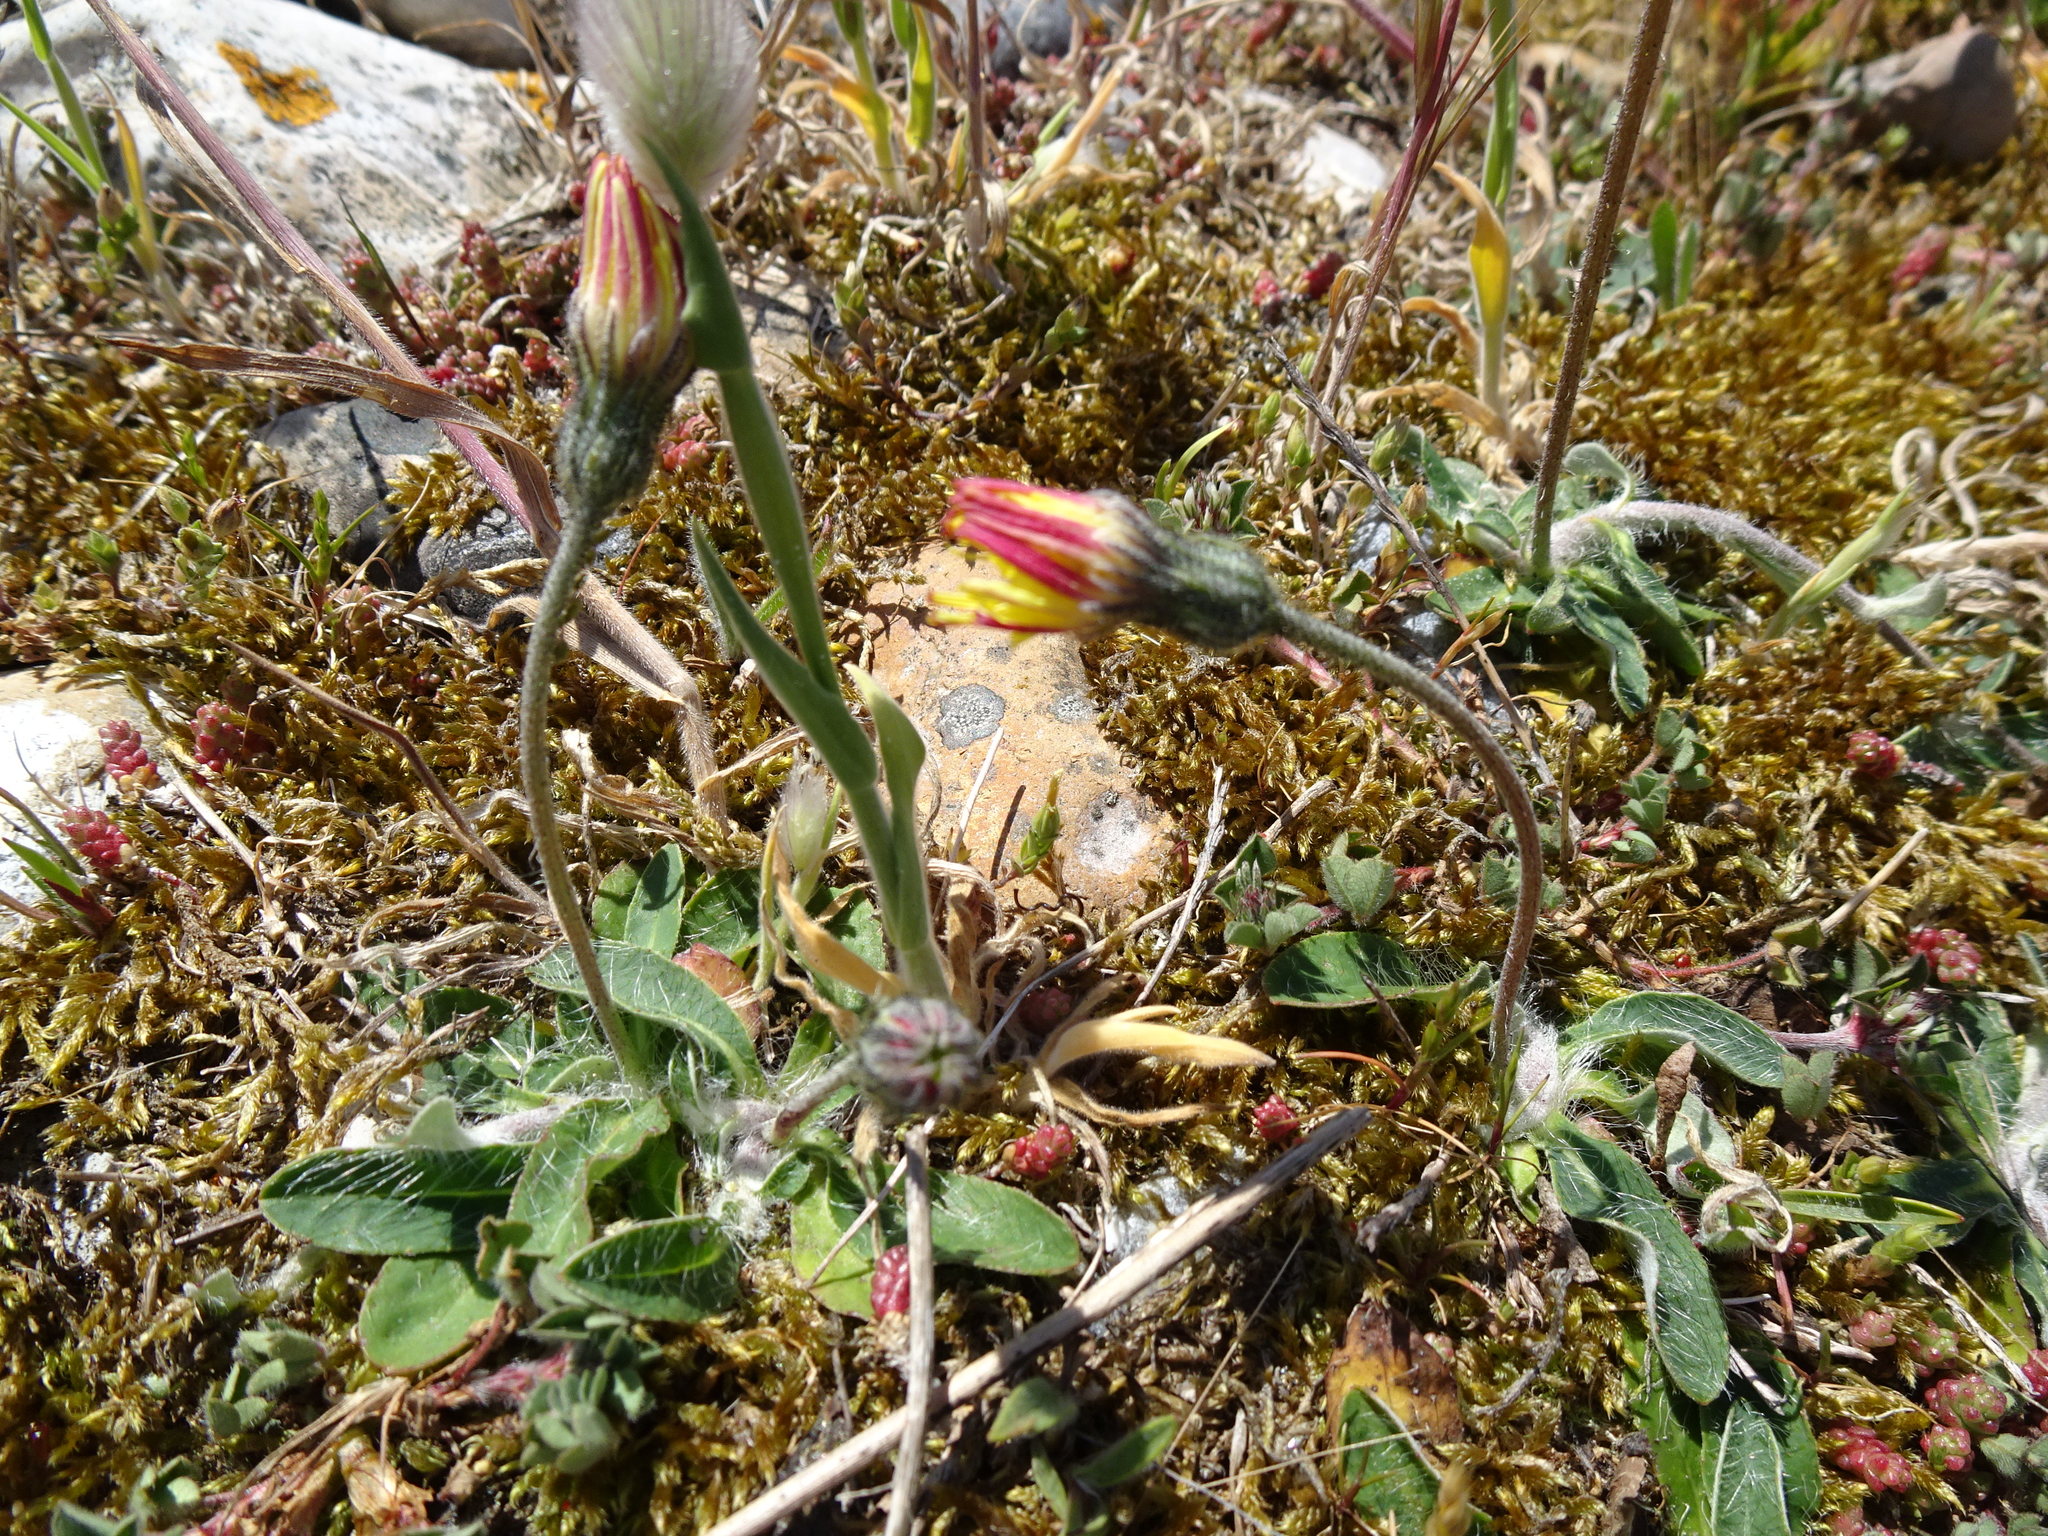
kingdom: Plantae
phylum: Tracheophyta
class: Magnoliopsida
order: Asterales
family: Asteraceae
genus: Pilosella
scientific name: Pilosella officinarum
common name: Mouse-ear hawkweed
